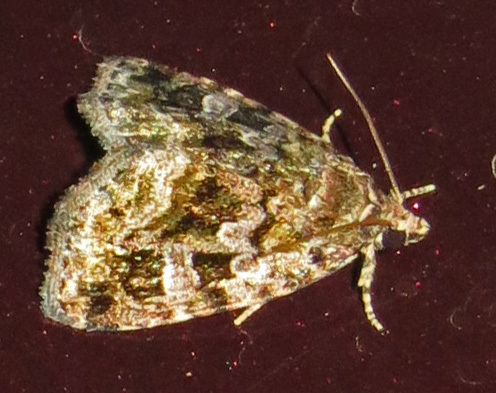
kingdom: Animalia
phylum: Arthropoda
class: Insecta
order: Lepidoptera
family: Noctuidae
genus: Protodeltote
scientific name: Protodeltote muscosula
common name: Large mossy glyph
